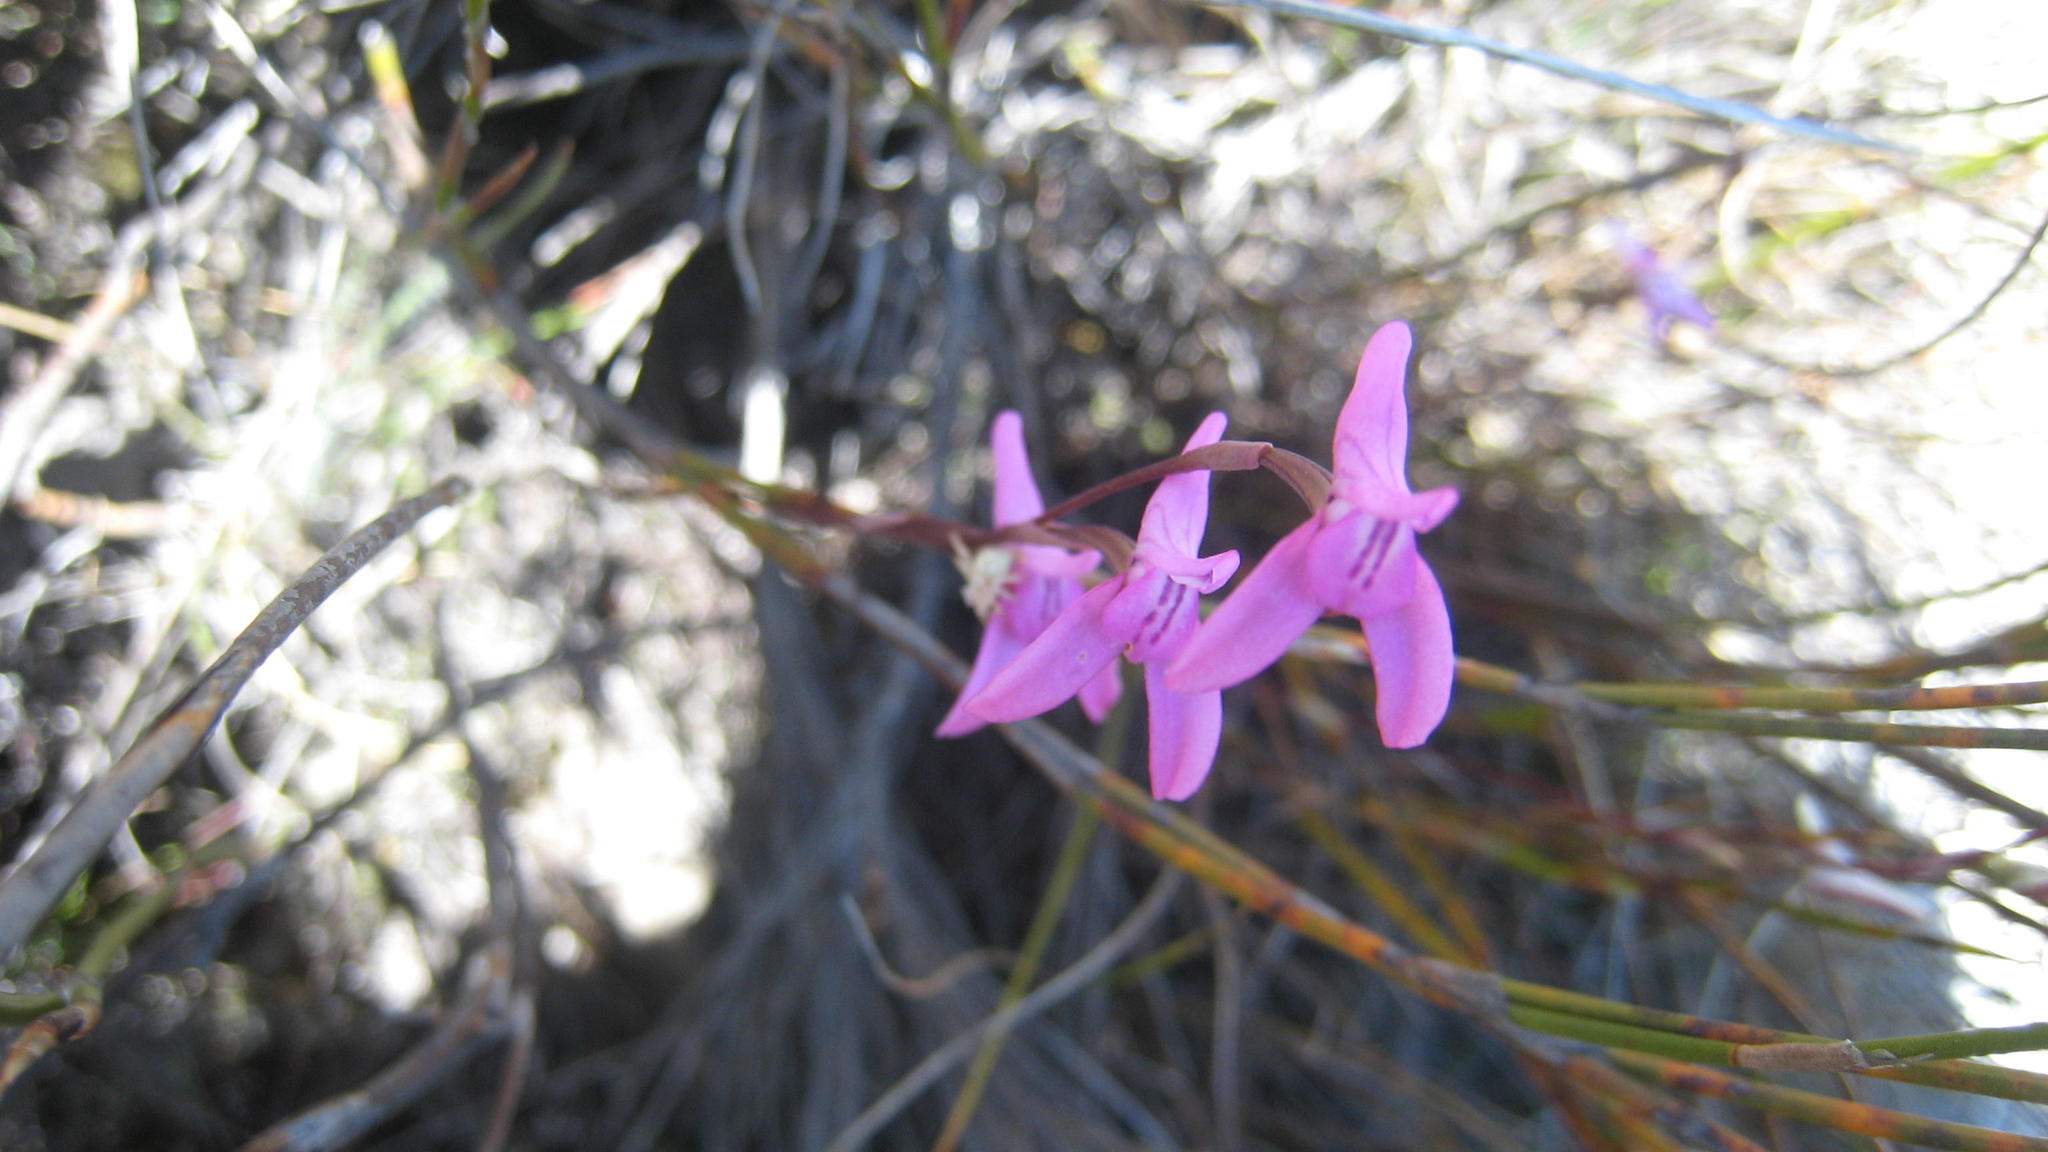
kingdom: Plantae
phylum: Tracheophyta
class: Liliopsida
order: Asparagales
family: Orchidaceae
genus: Disa
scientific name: Disa inflexa
